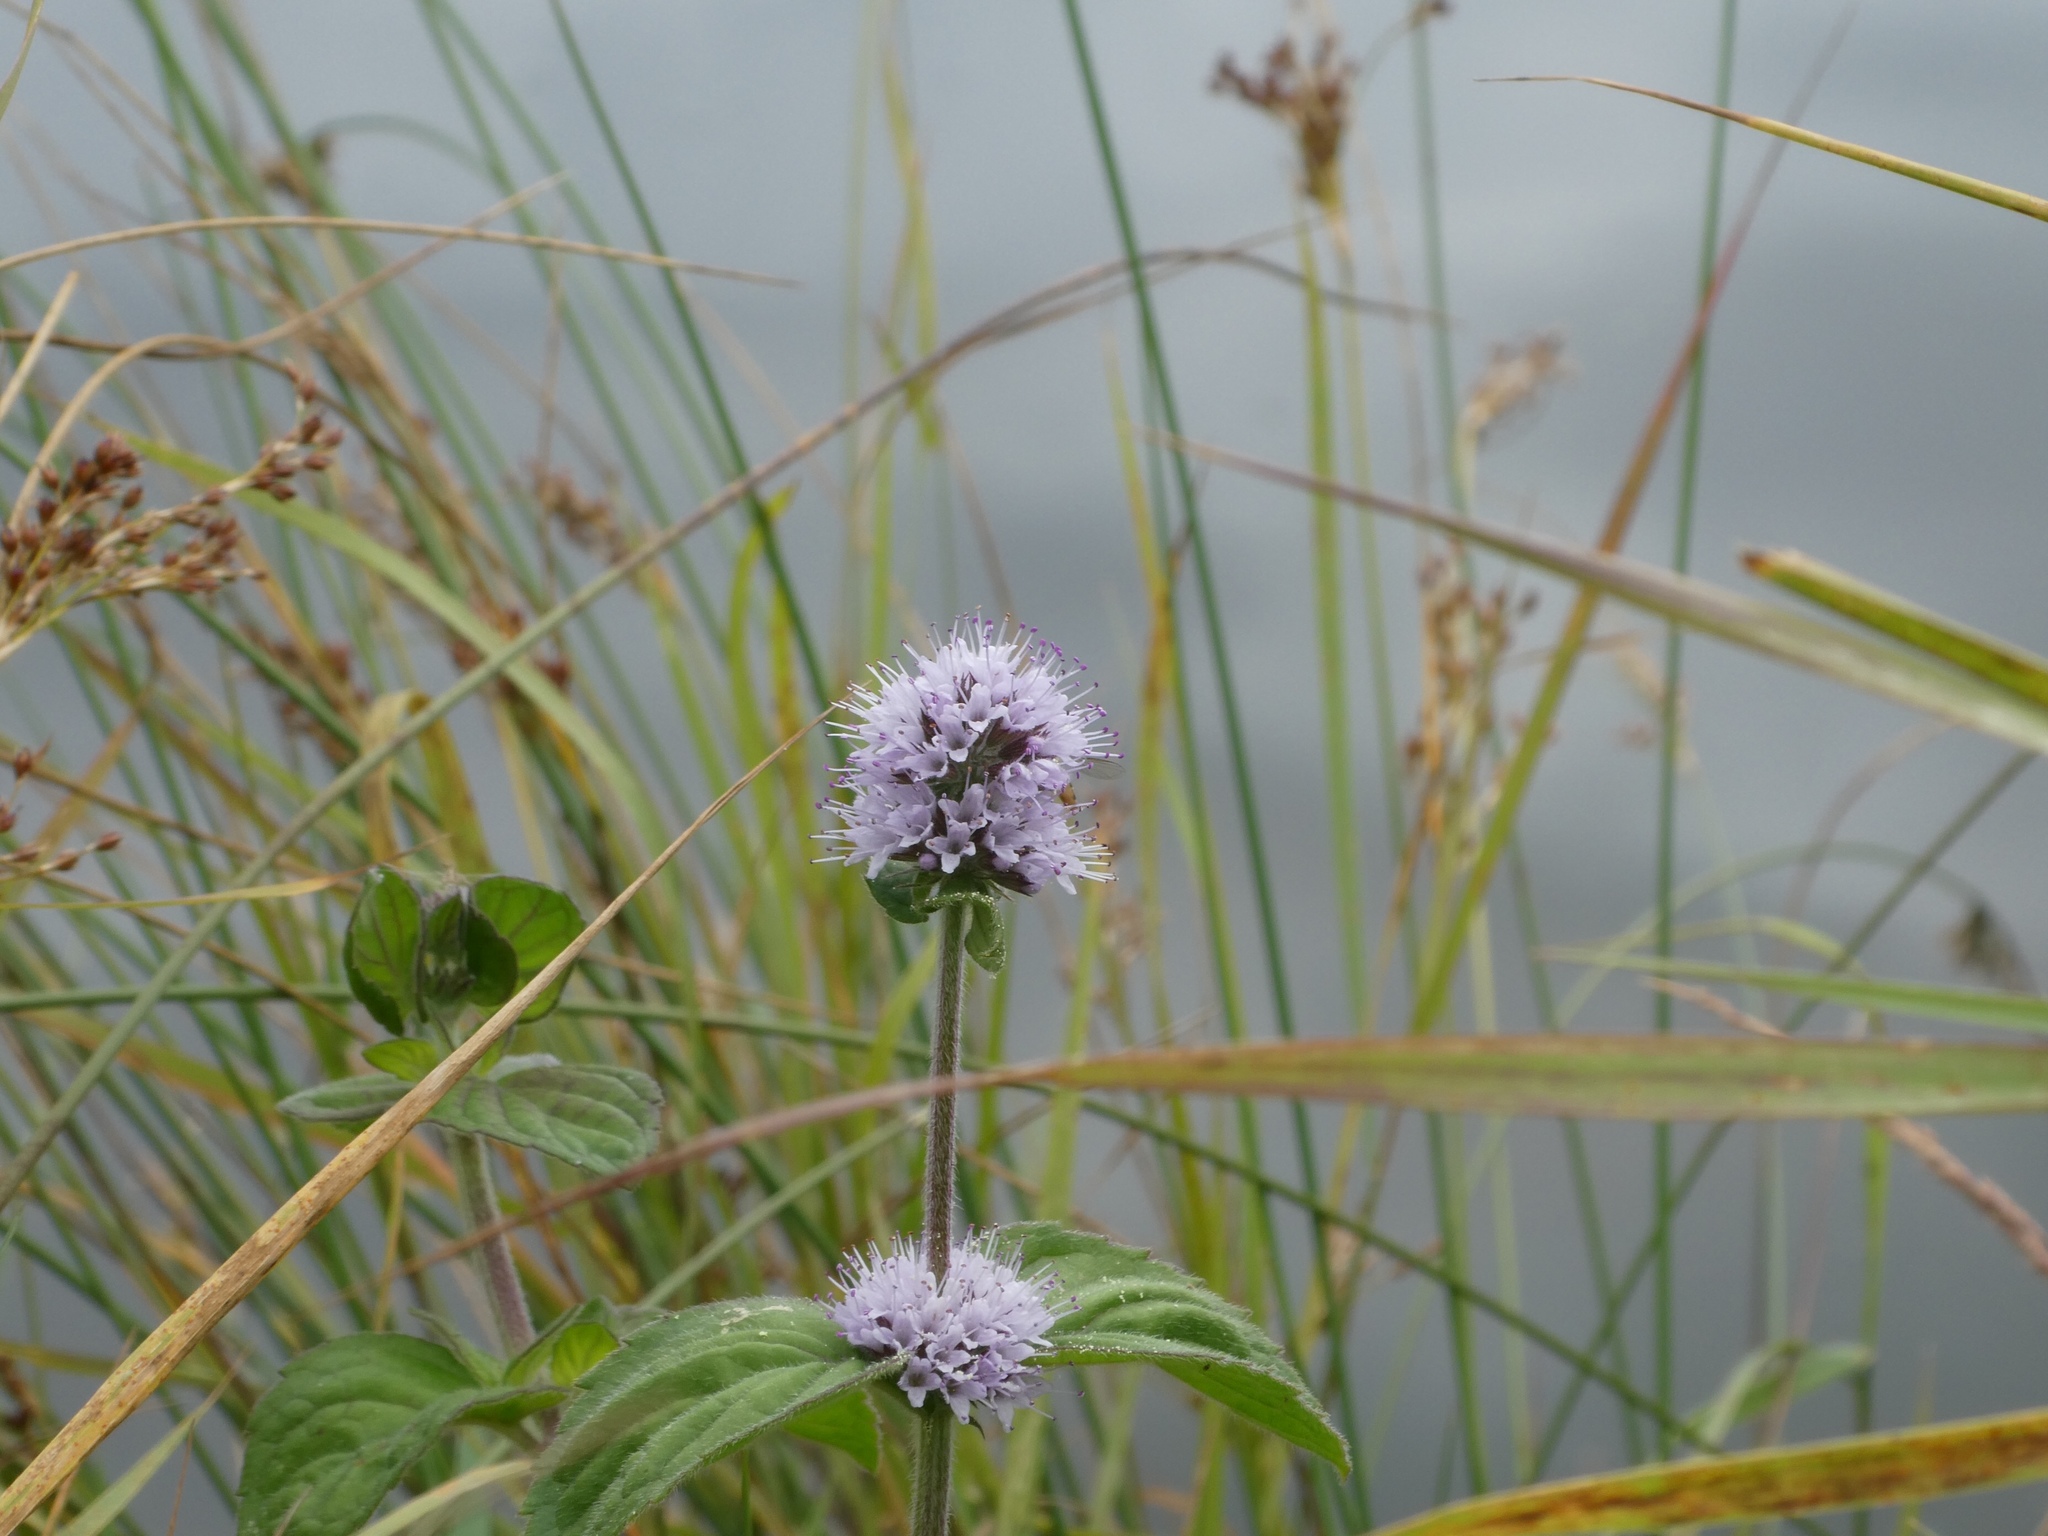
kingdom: Plantae
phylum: Tracheophyta
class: Magnoliopsida
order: Lamiales
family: Lamiaceae
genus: Mentha
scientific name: Mentha aquatica
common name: Water mint
